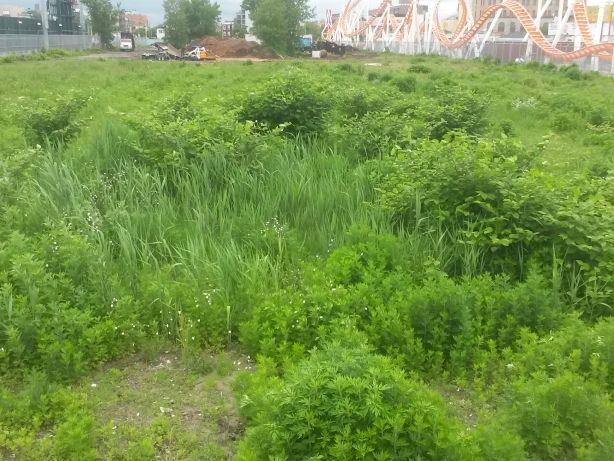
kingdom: Plantae
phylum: Tracheophyta
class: Magnoliopsida
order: Caryophyllales
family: Polygonaceae
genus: Reynoutria
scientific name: Reynoutria japonica
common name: Japanese knotweed
